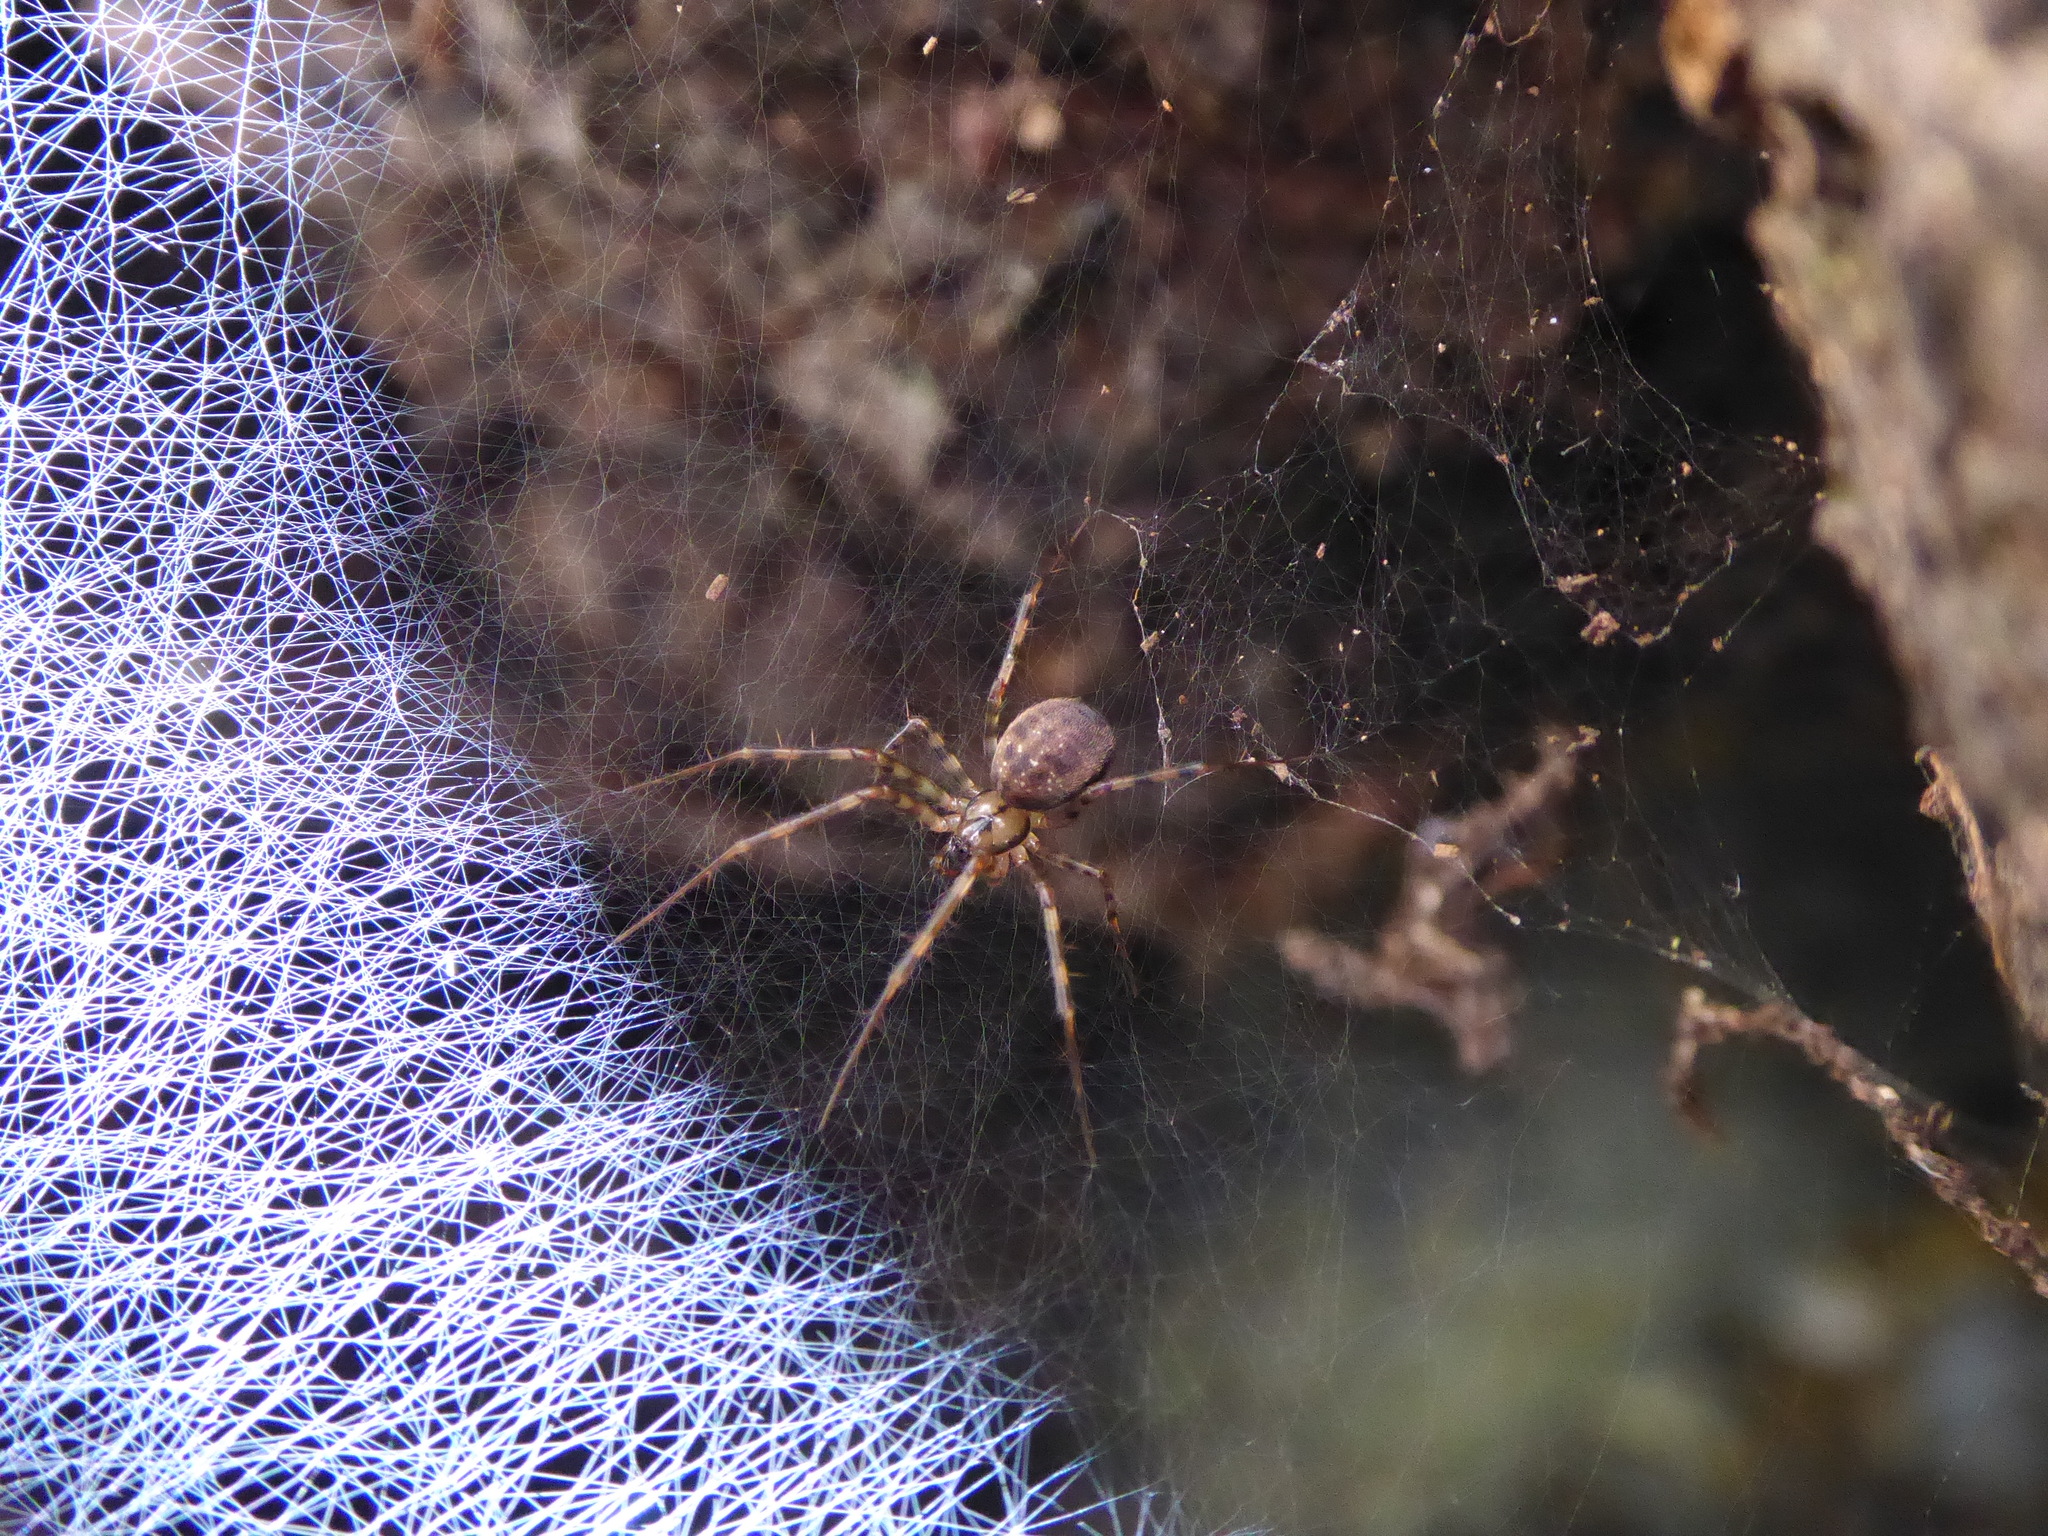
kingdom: Animalia
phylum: Arthropoda
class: Arachnida
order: Araneae
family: Linyphiidae
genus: Labulla
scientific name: Labulla thoracica
